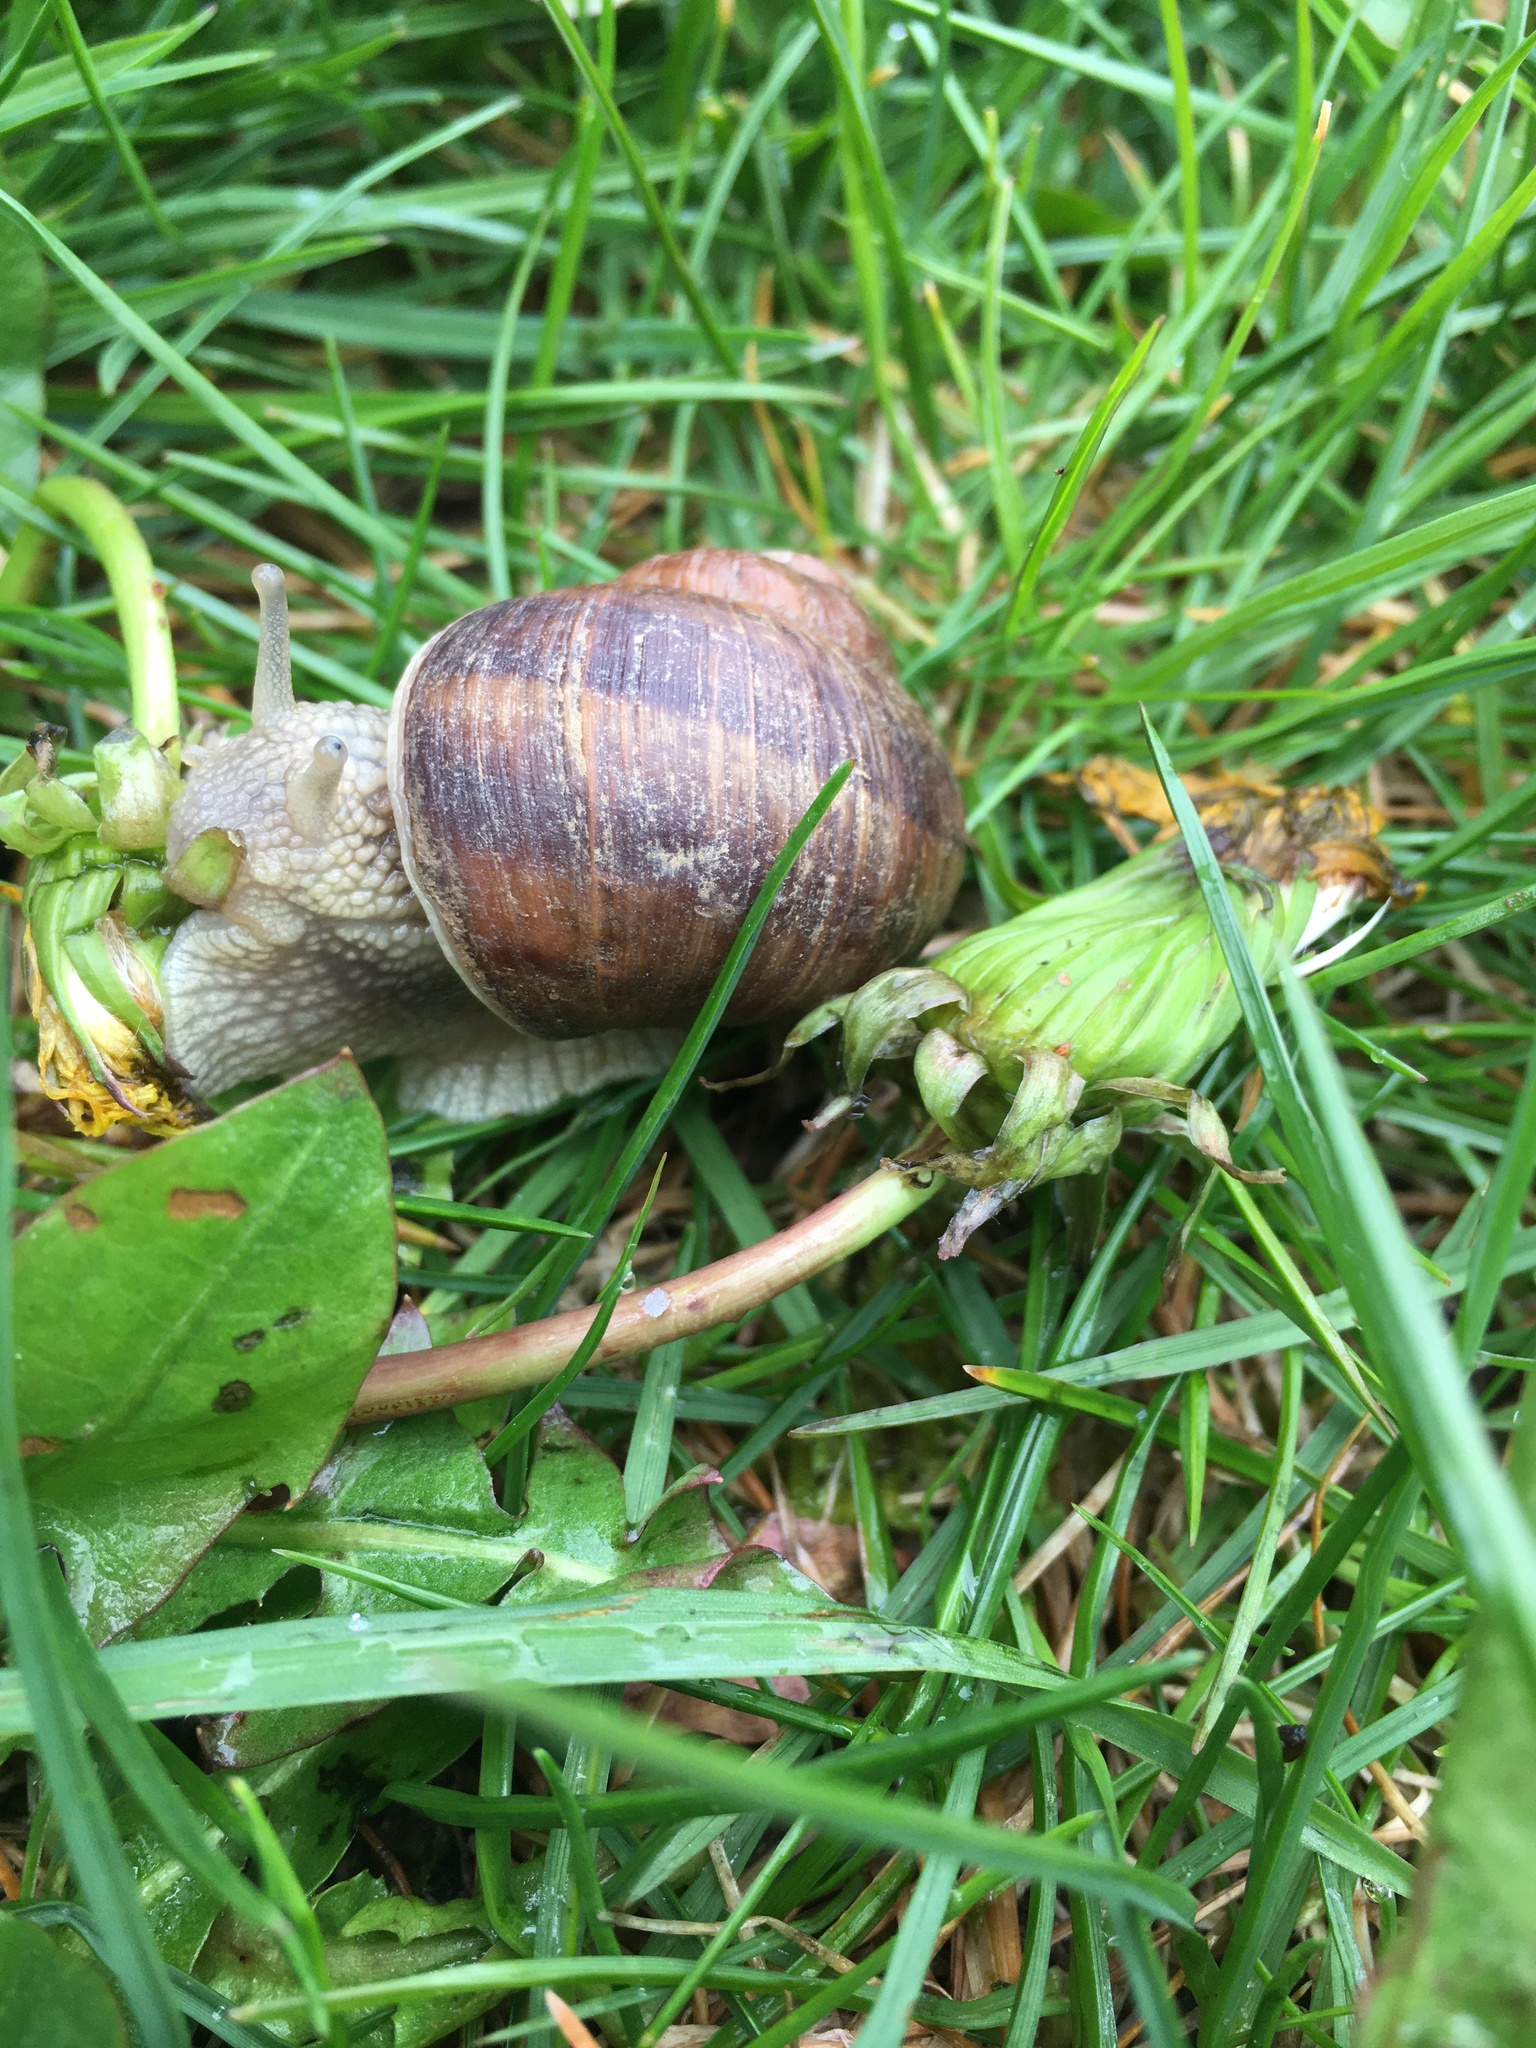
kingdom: Animalia
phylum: Mollusca
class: Gastropoda
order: Stylommatophora
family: Helicidae
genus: Helix
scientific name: Helix pomatia
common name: Roman snail
